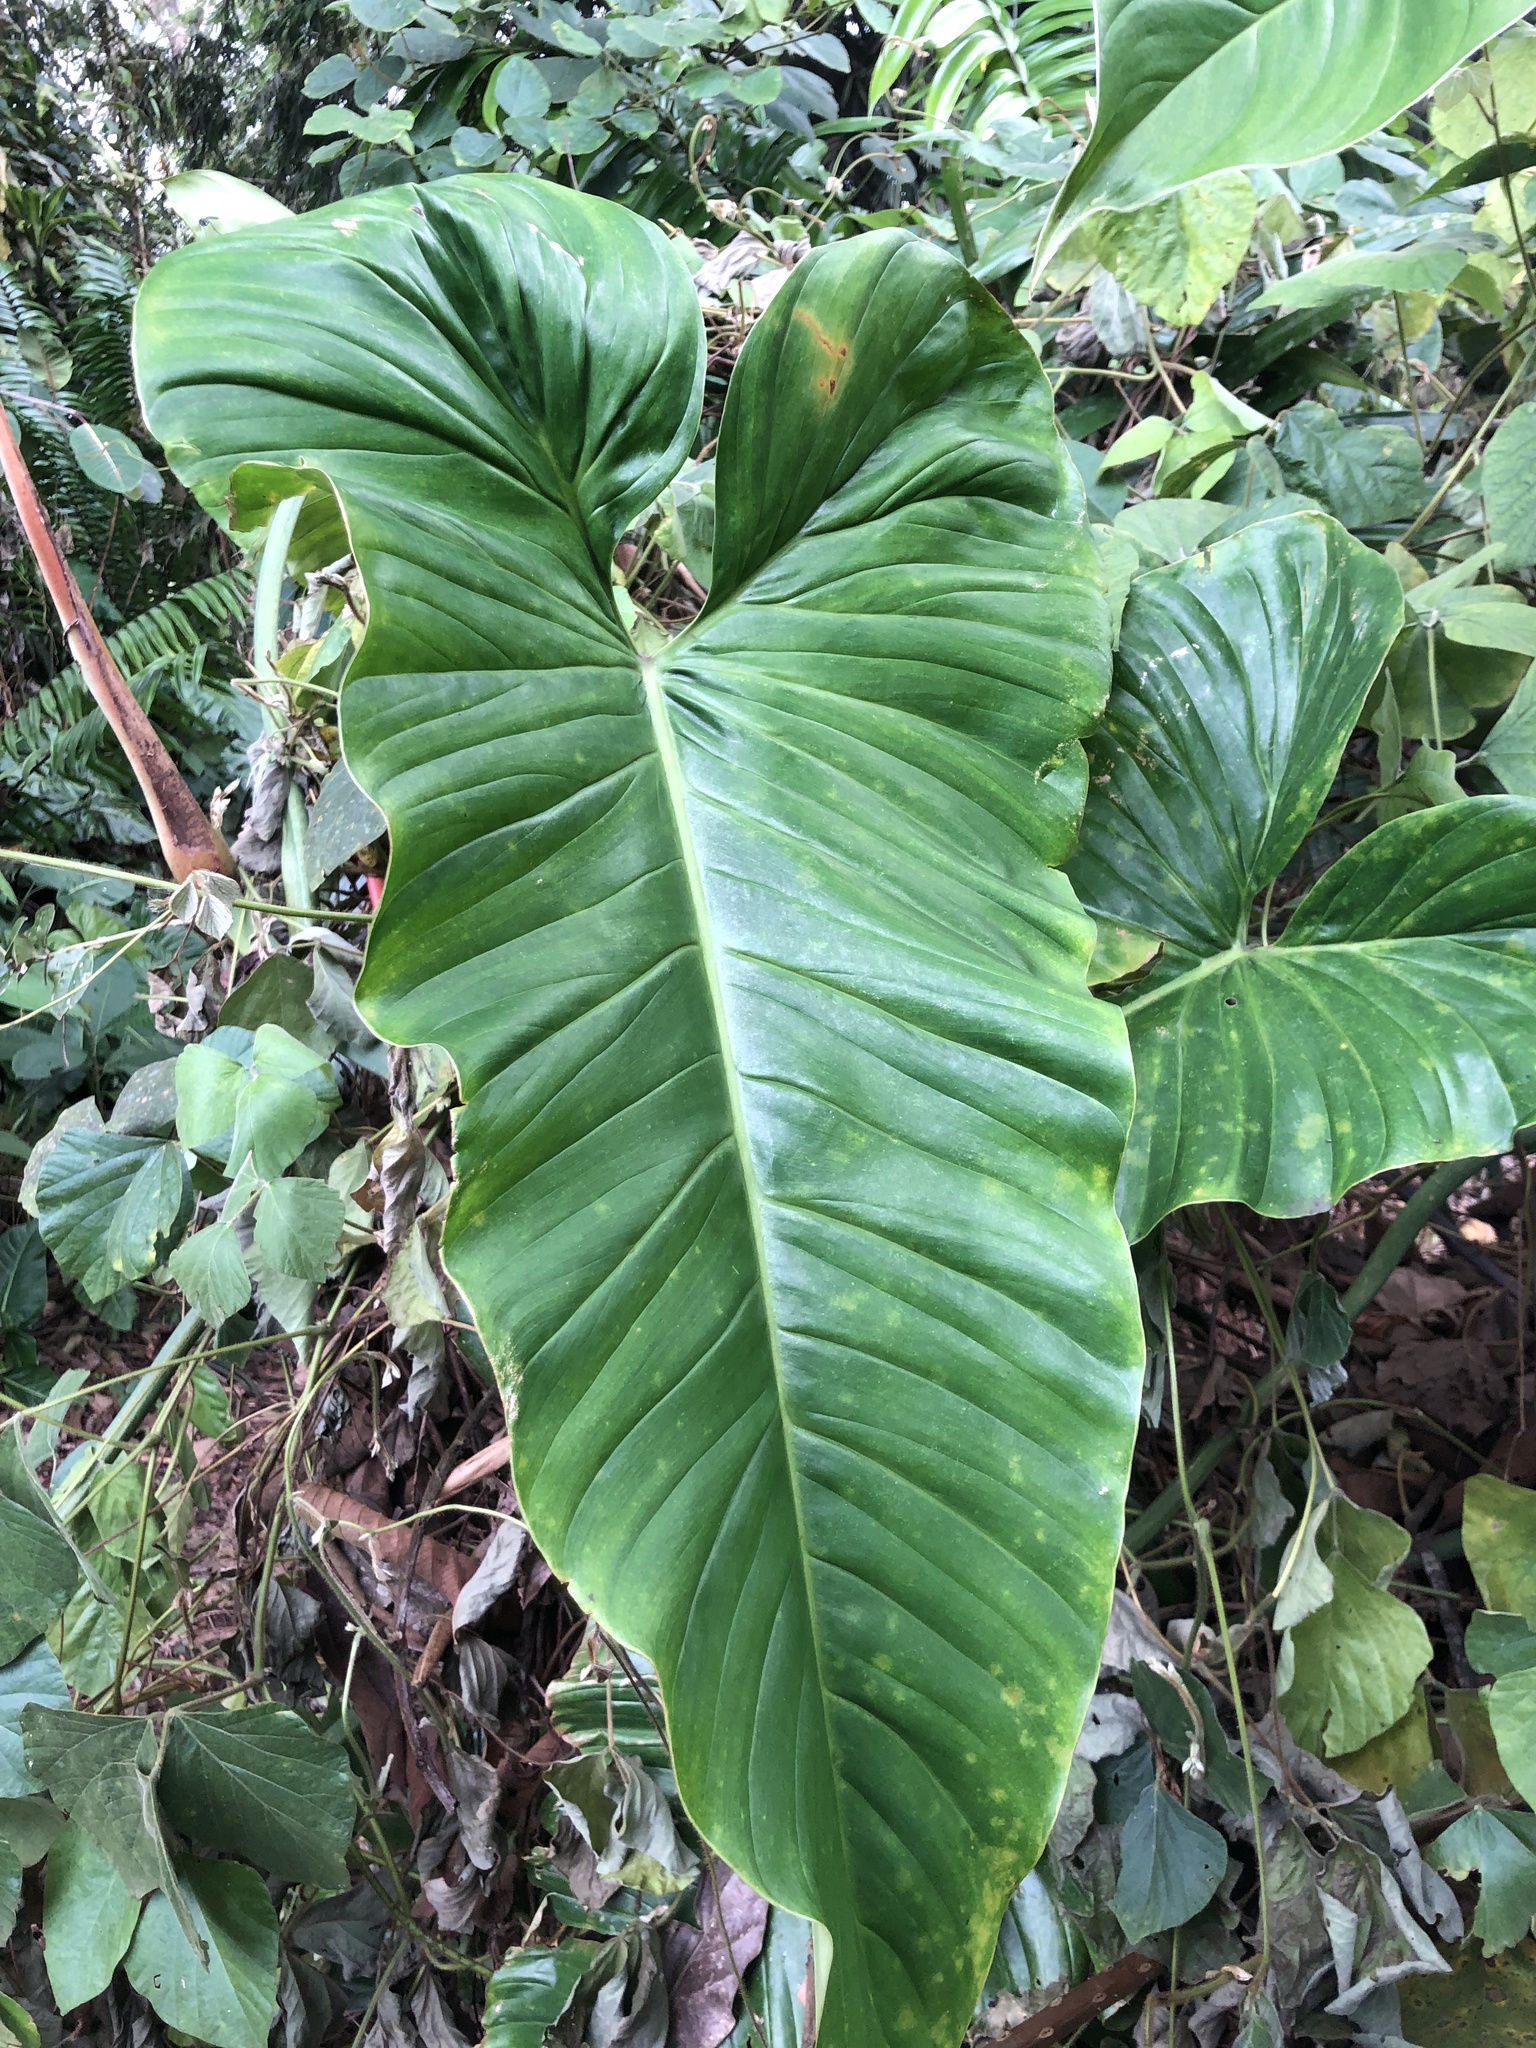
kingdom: Plantae
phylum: Tracheophyta
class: Liliopsida
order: Alismatales
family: Araceae
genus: Philodendron
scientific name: Philodendron subhastatum
